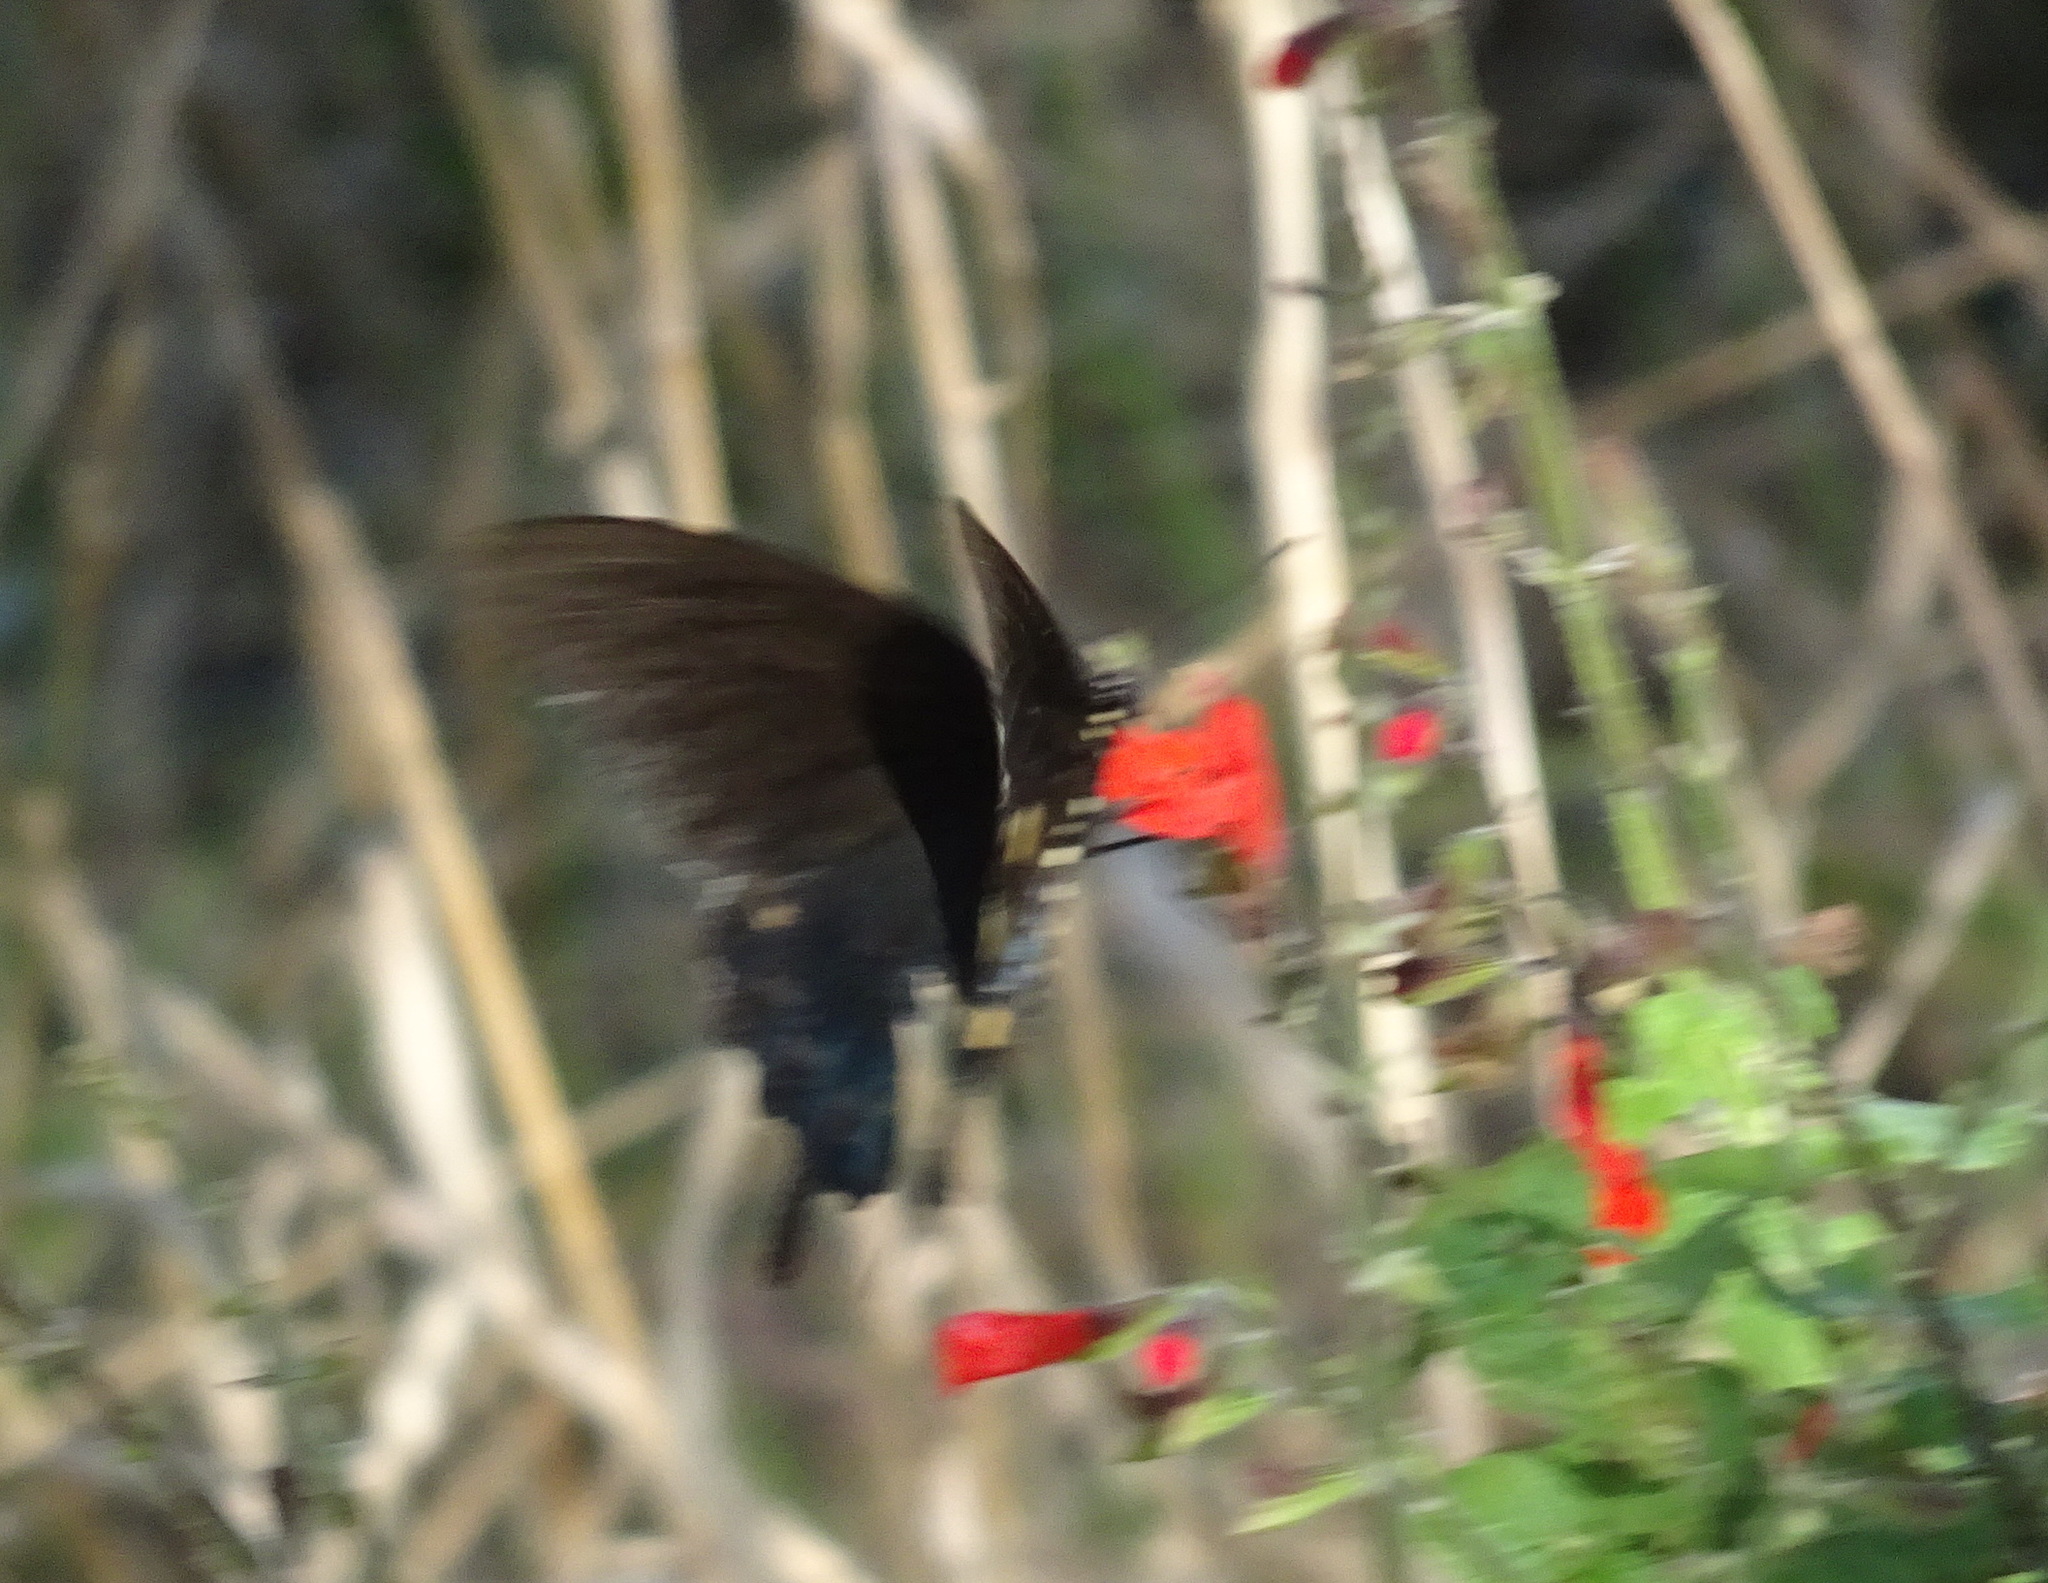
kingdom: Animalia
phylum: Arthropoda
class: Insecta
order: Lepidoptera
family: Papilionidae
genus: Battus
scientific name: Battus philenor
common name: Pipevine swallowtail
